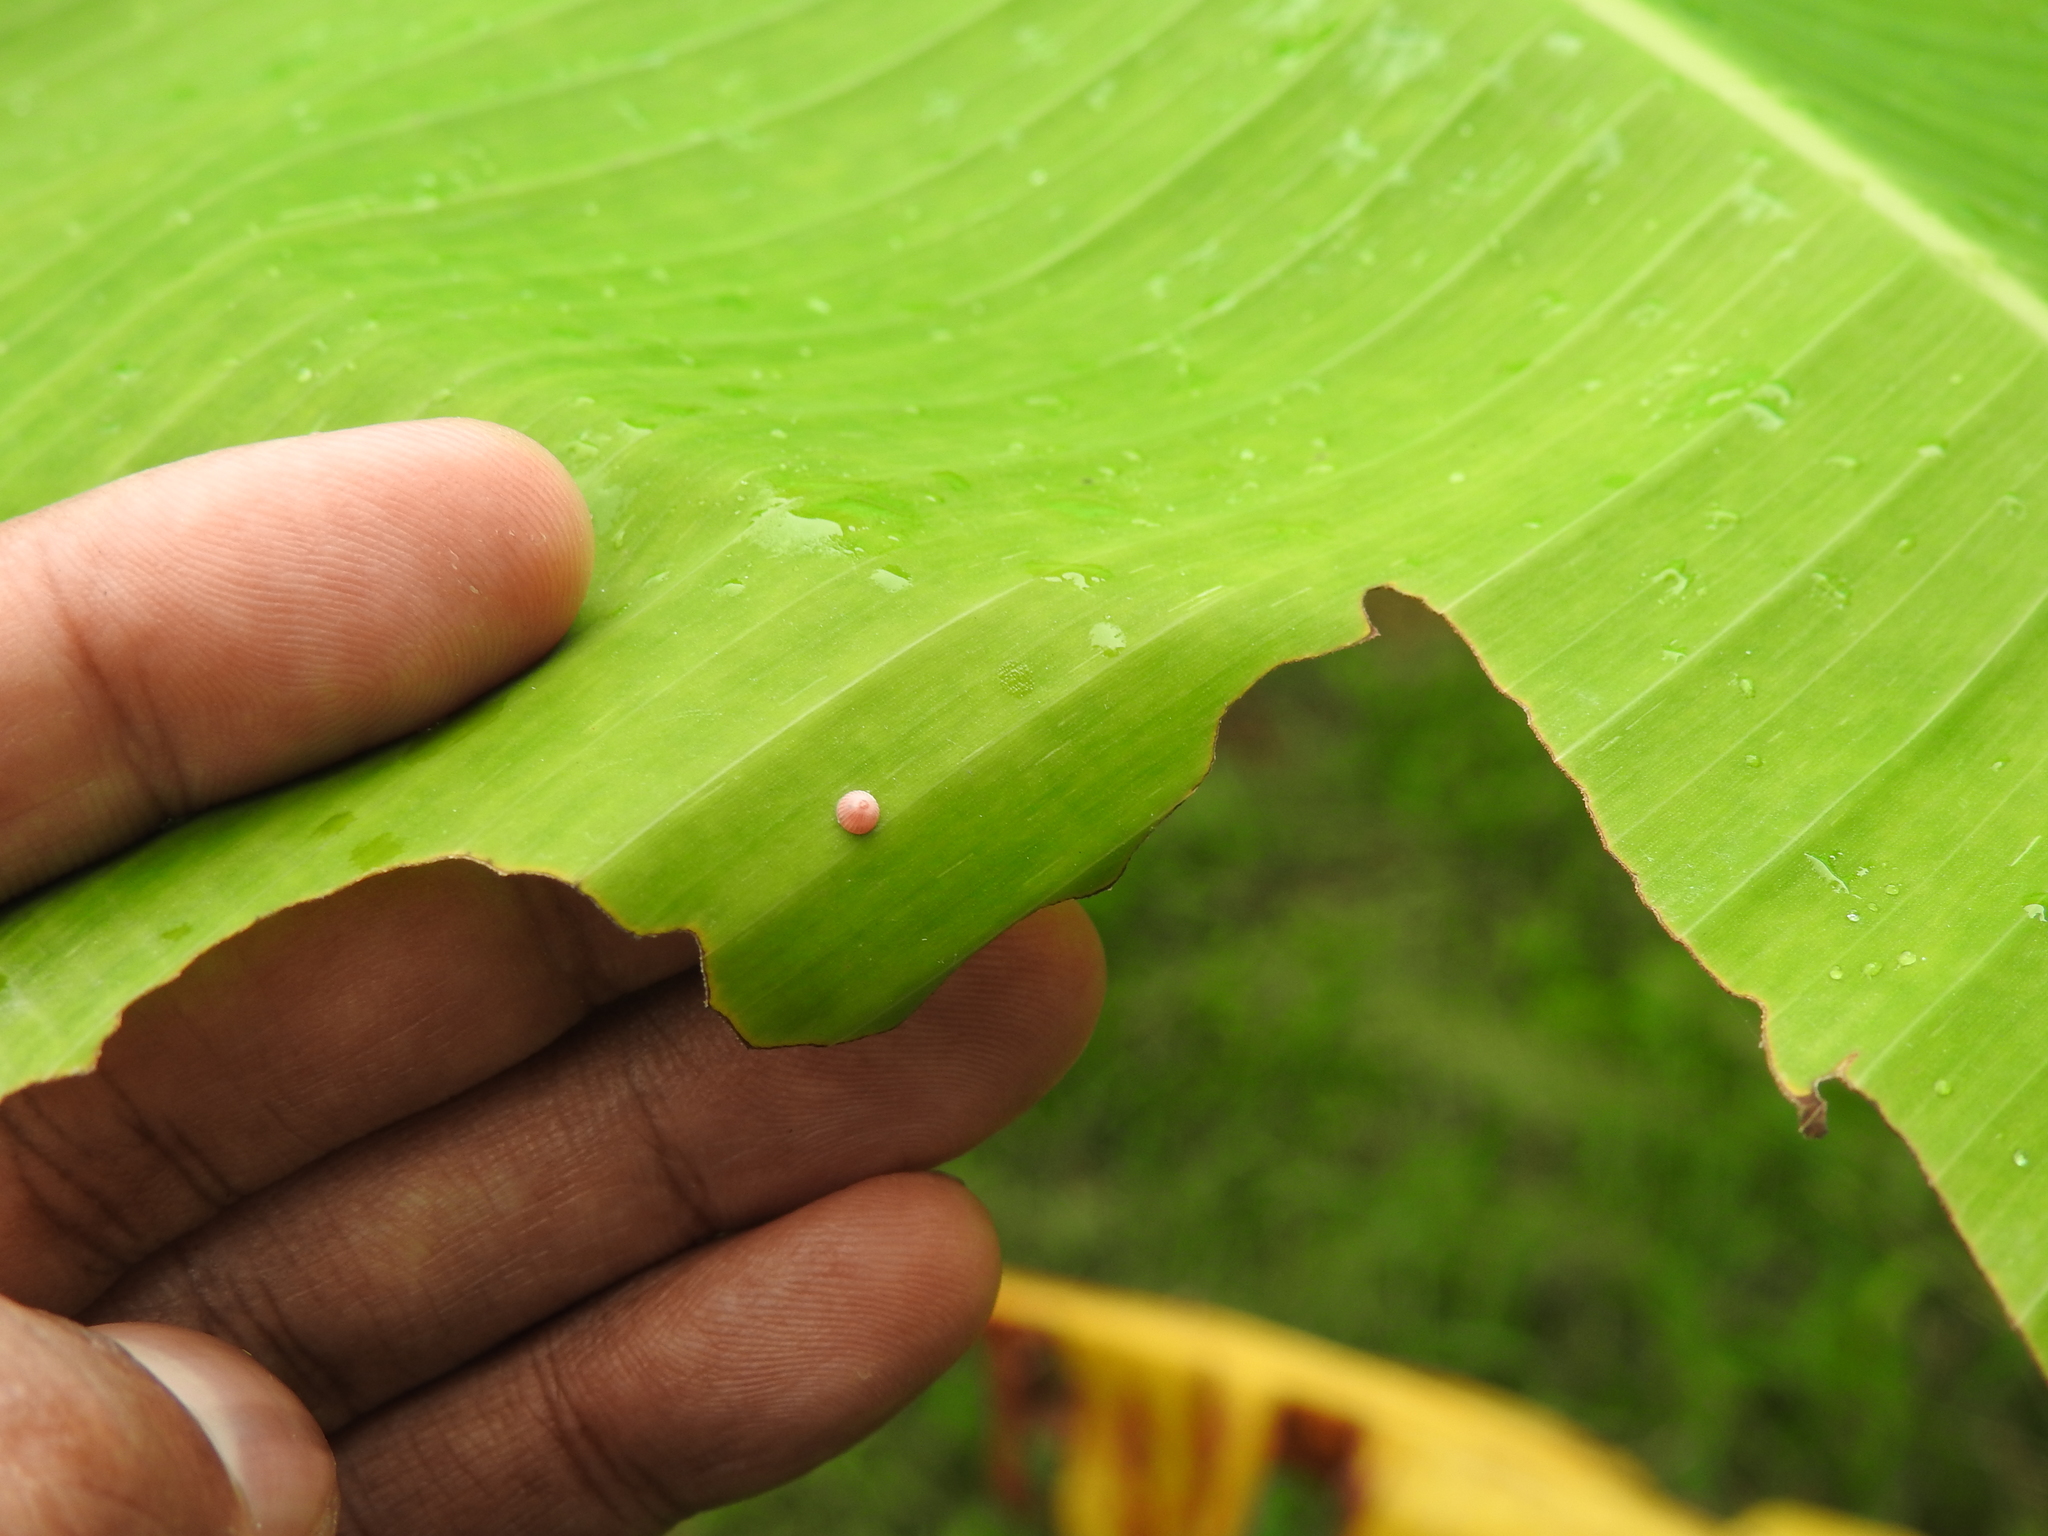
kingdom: Animalia
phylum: Arthropoda
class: Insecta
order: Lepidoptera
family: Hesperiidae
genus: Erionota
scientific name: Erionota torus
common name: Rounded palm-redeye
